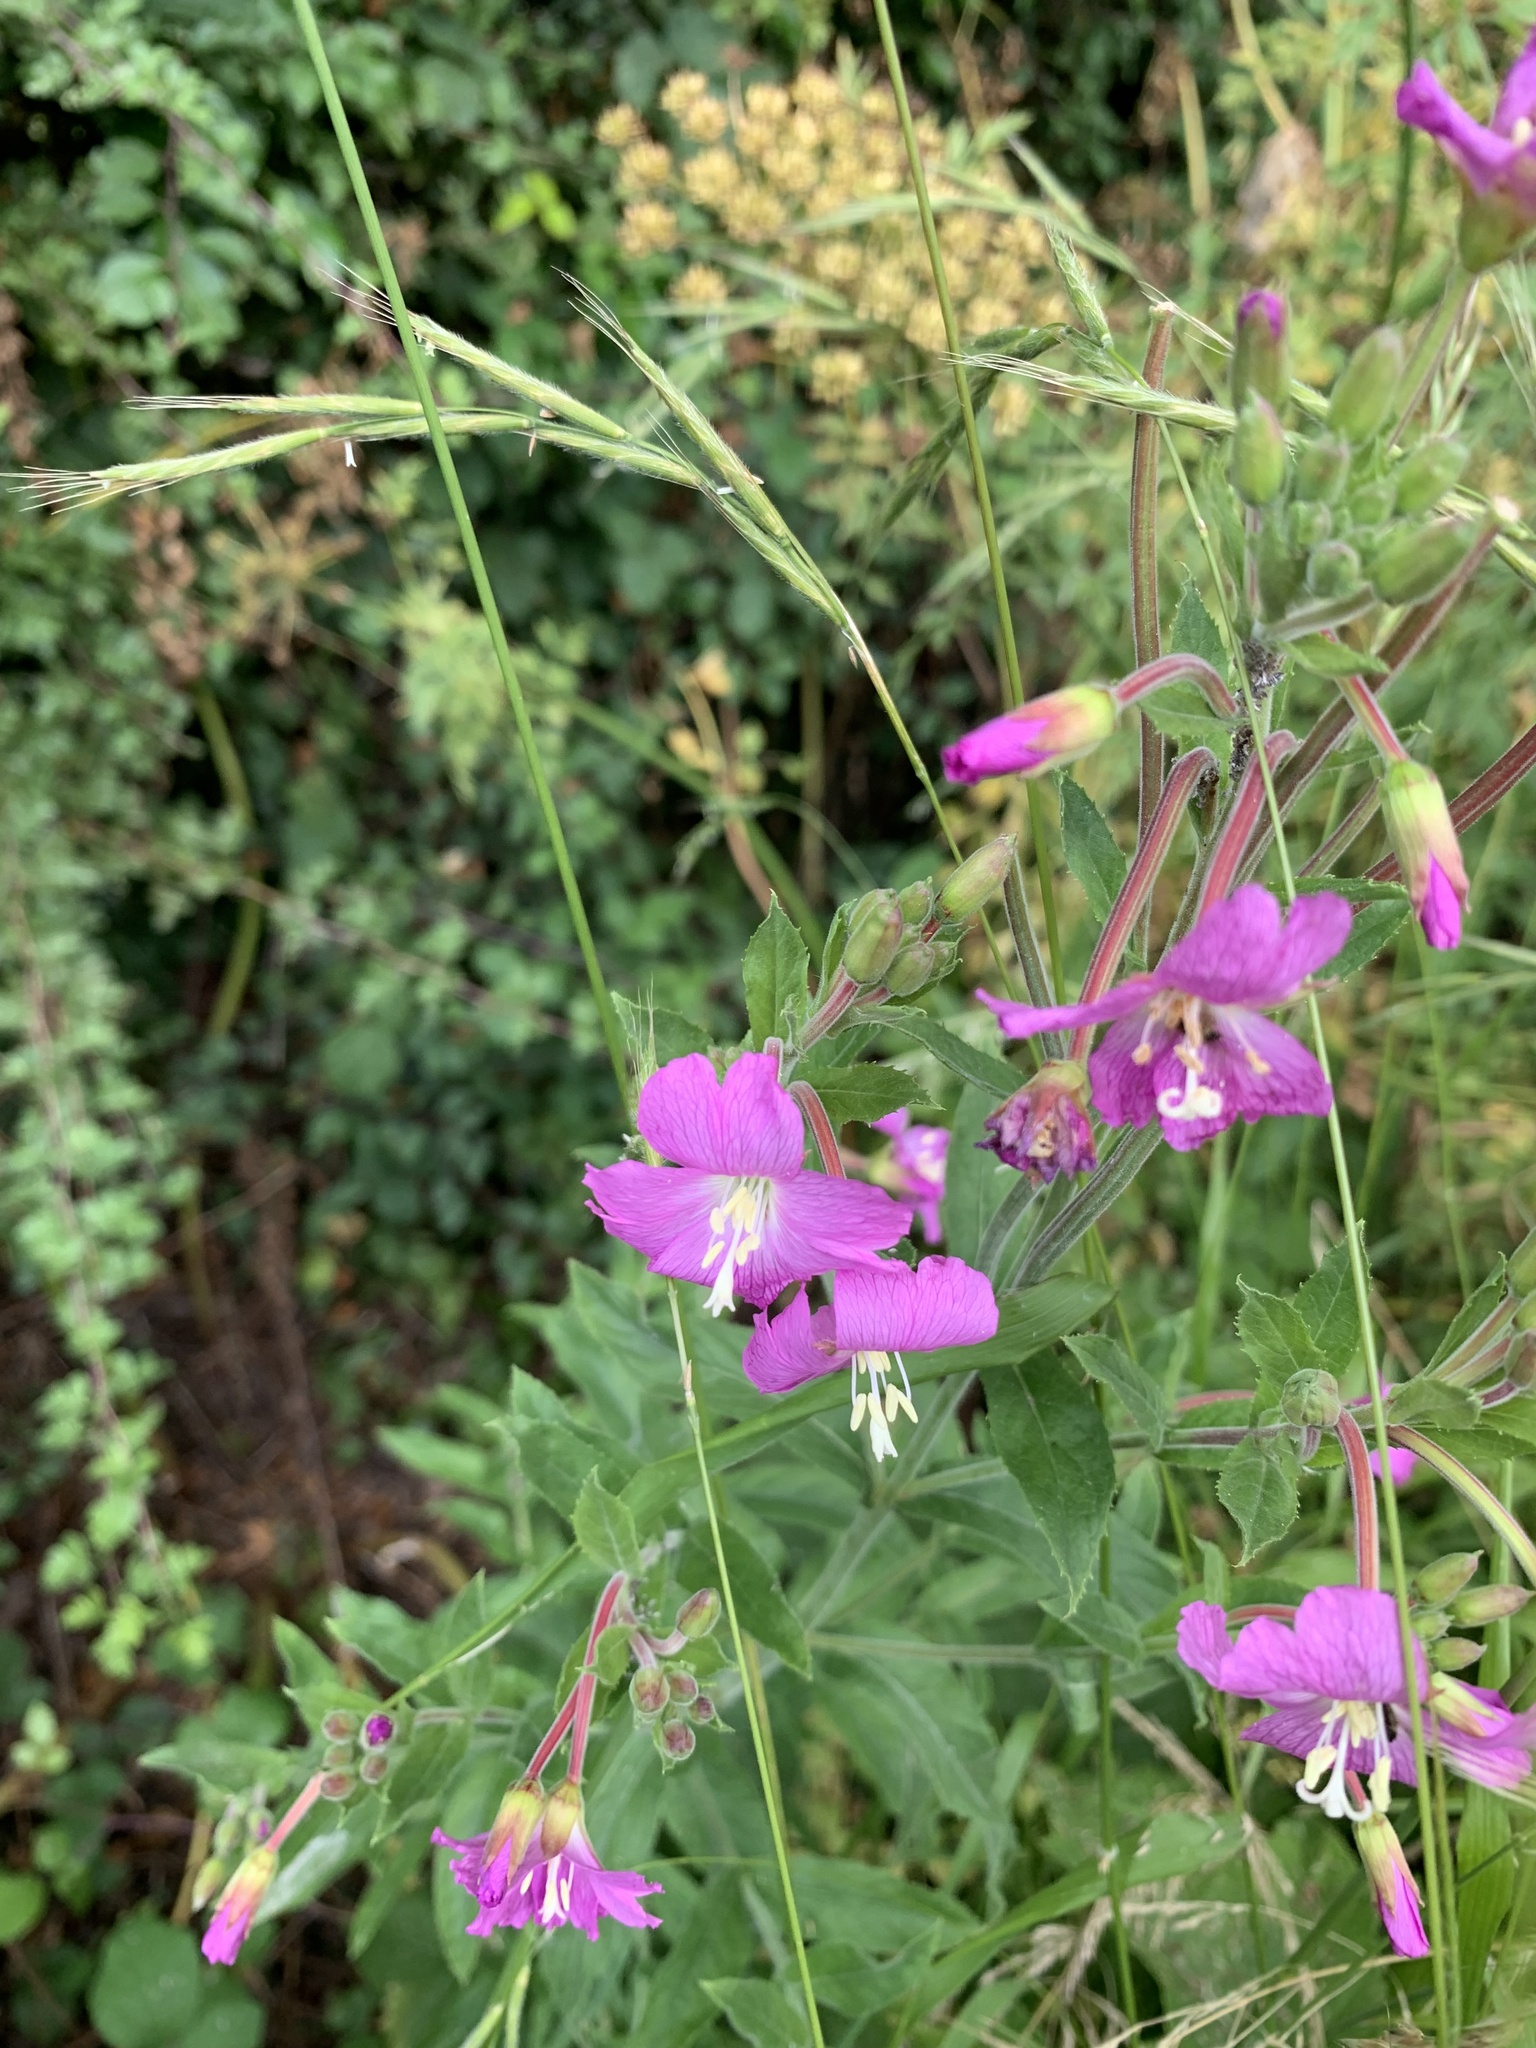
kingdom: Plantae
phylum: Tracheophyta
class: Magnoliopsida
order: Myrtales
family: Onagraceae
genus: Epilobium
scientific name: Epilobium hirsutum
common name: Great willowherb
